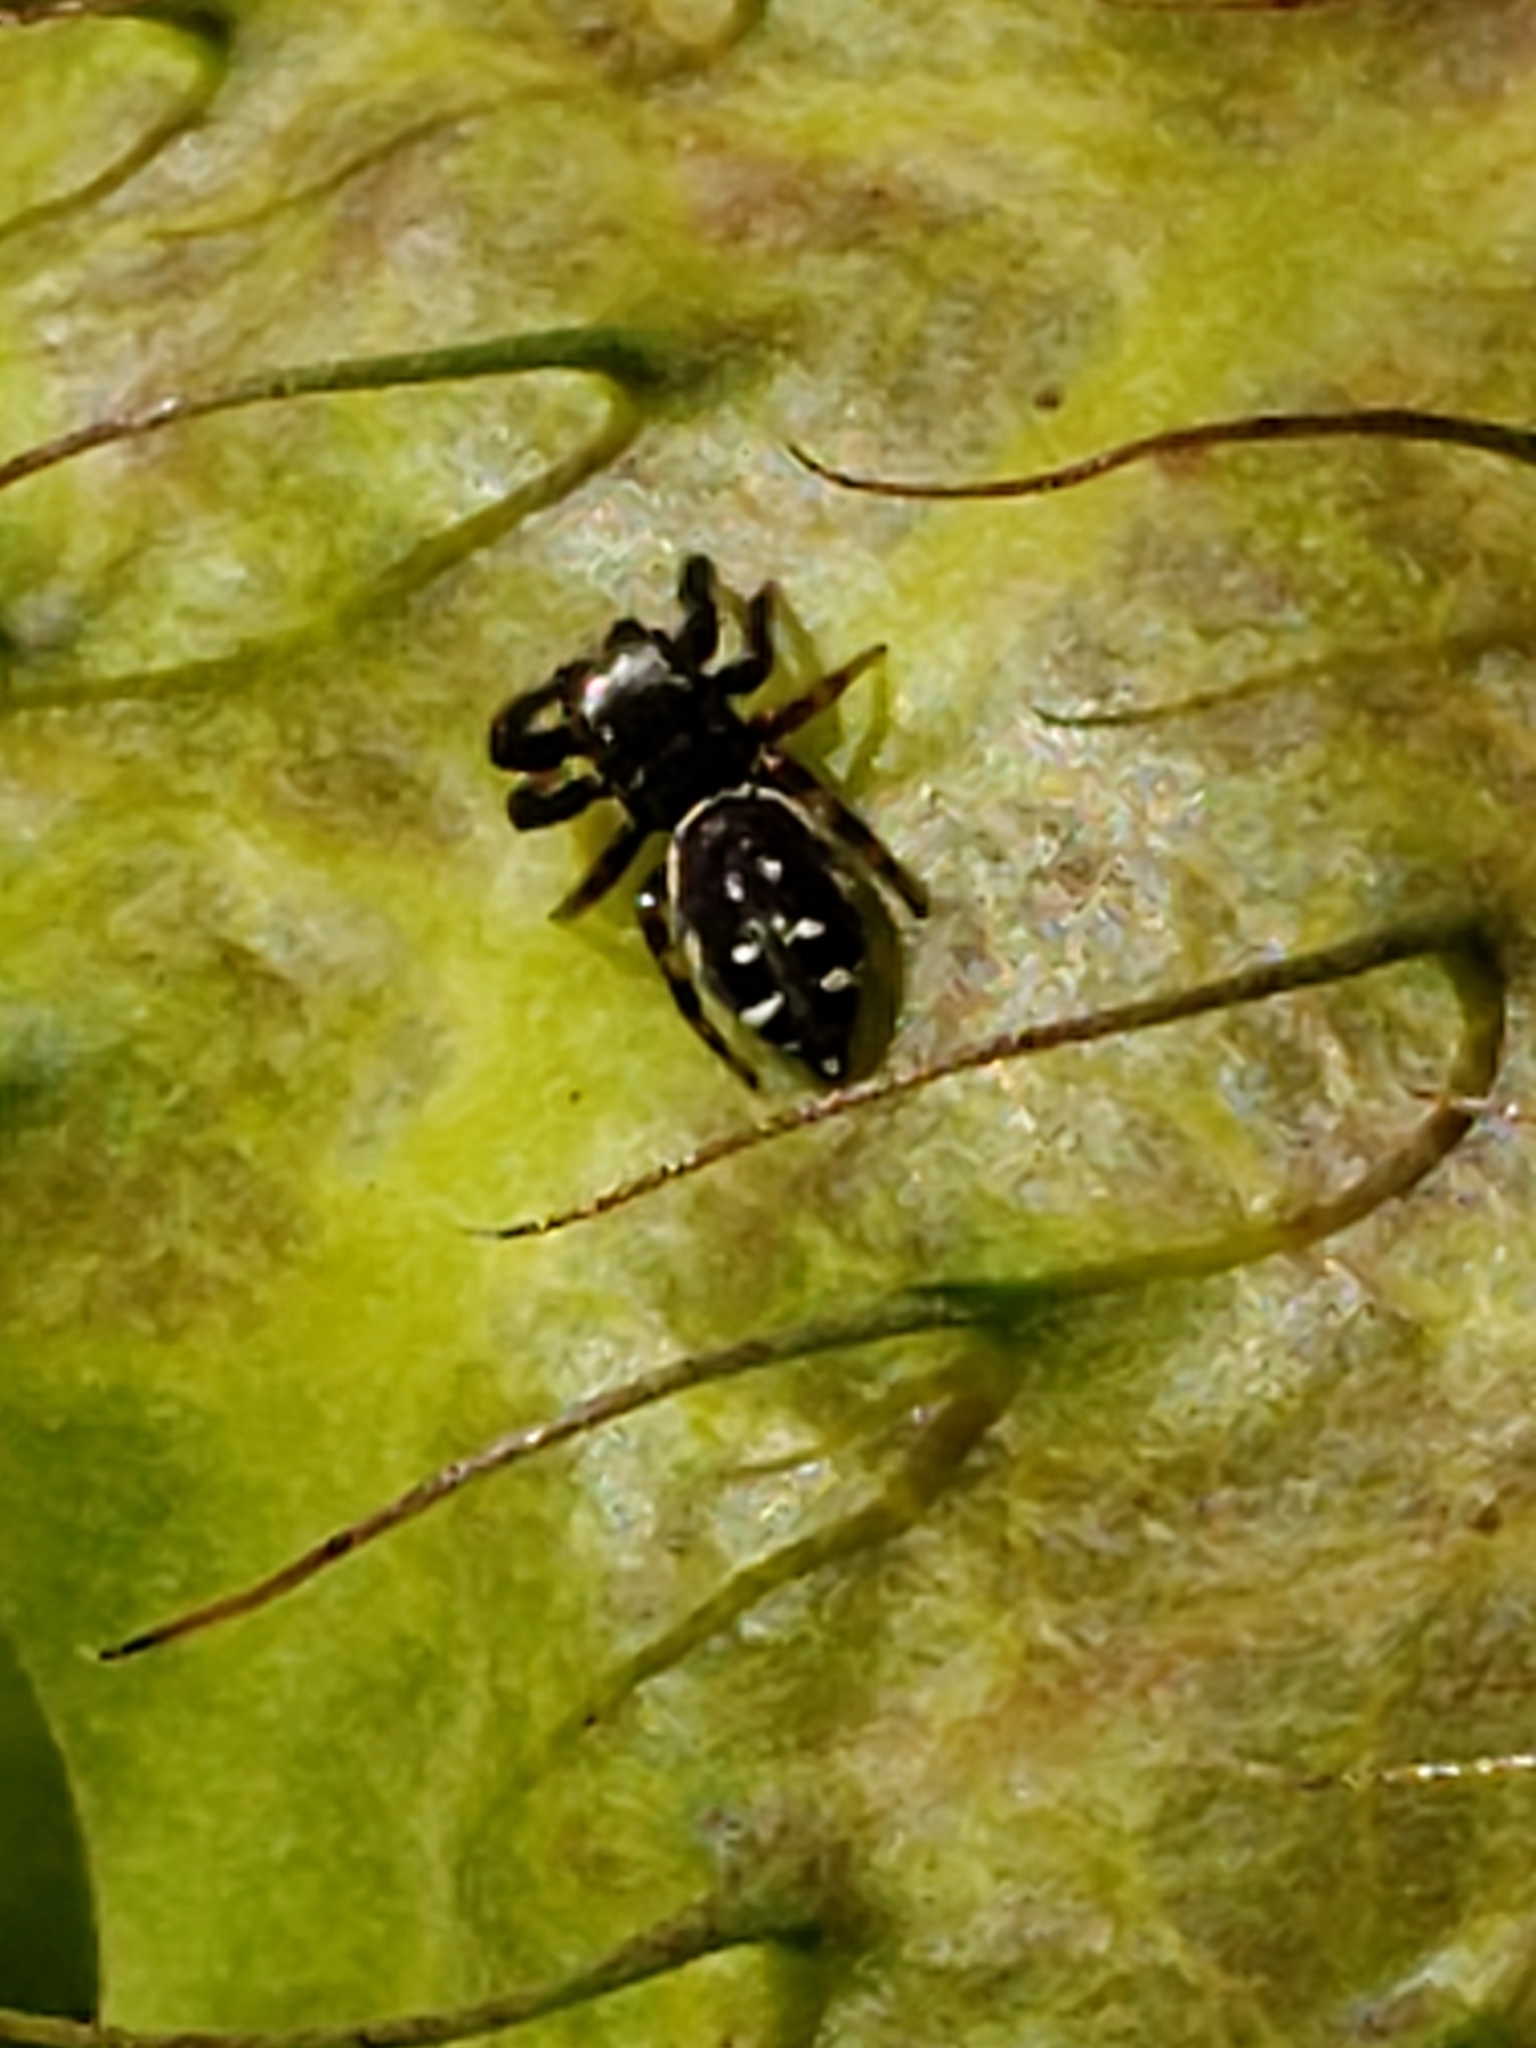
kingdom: Animalia
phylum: Arthropoda
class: Arachnida
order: Araneae
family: Salticidae
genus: Paraphidippus
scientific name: Paraphidippus aurantius
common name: Jumping spiders
